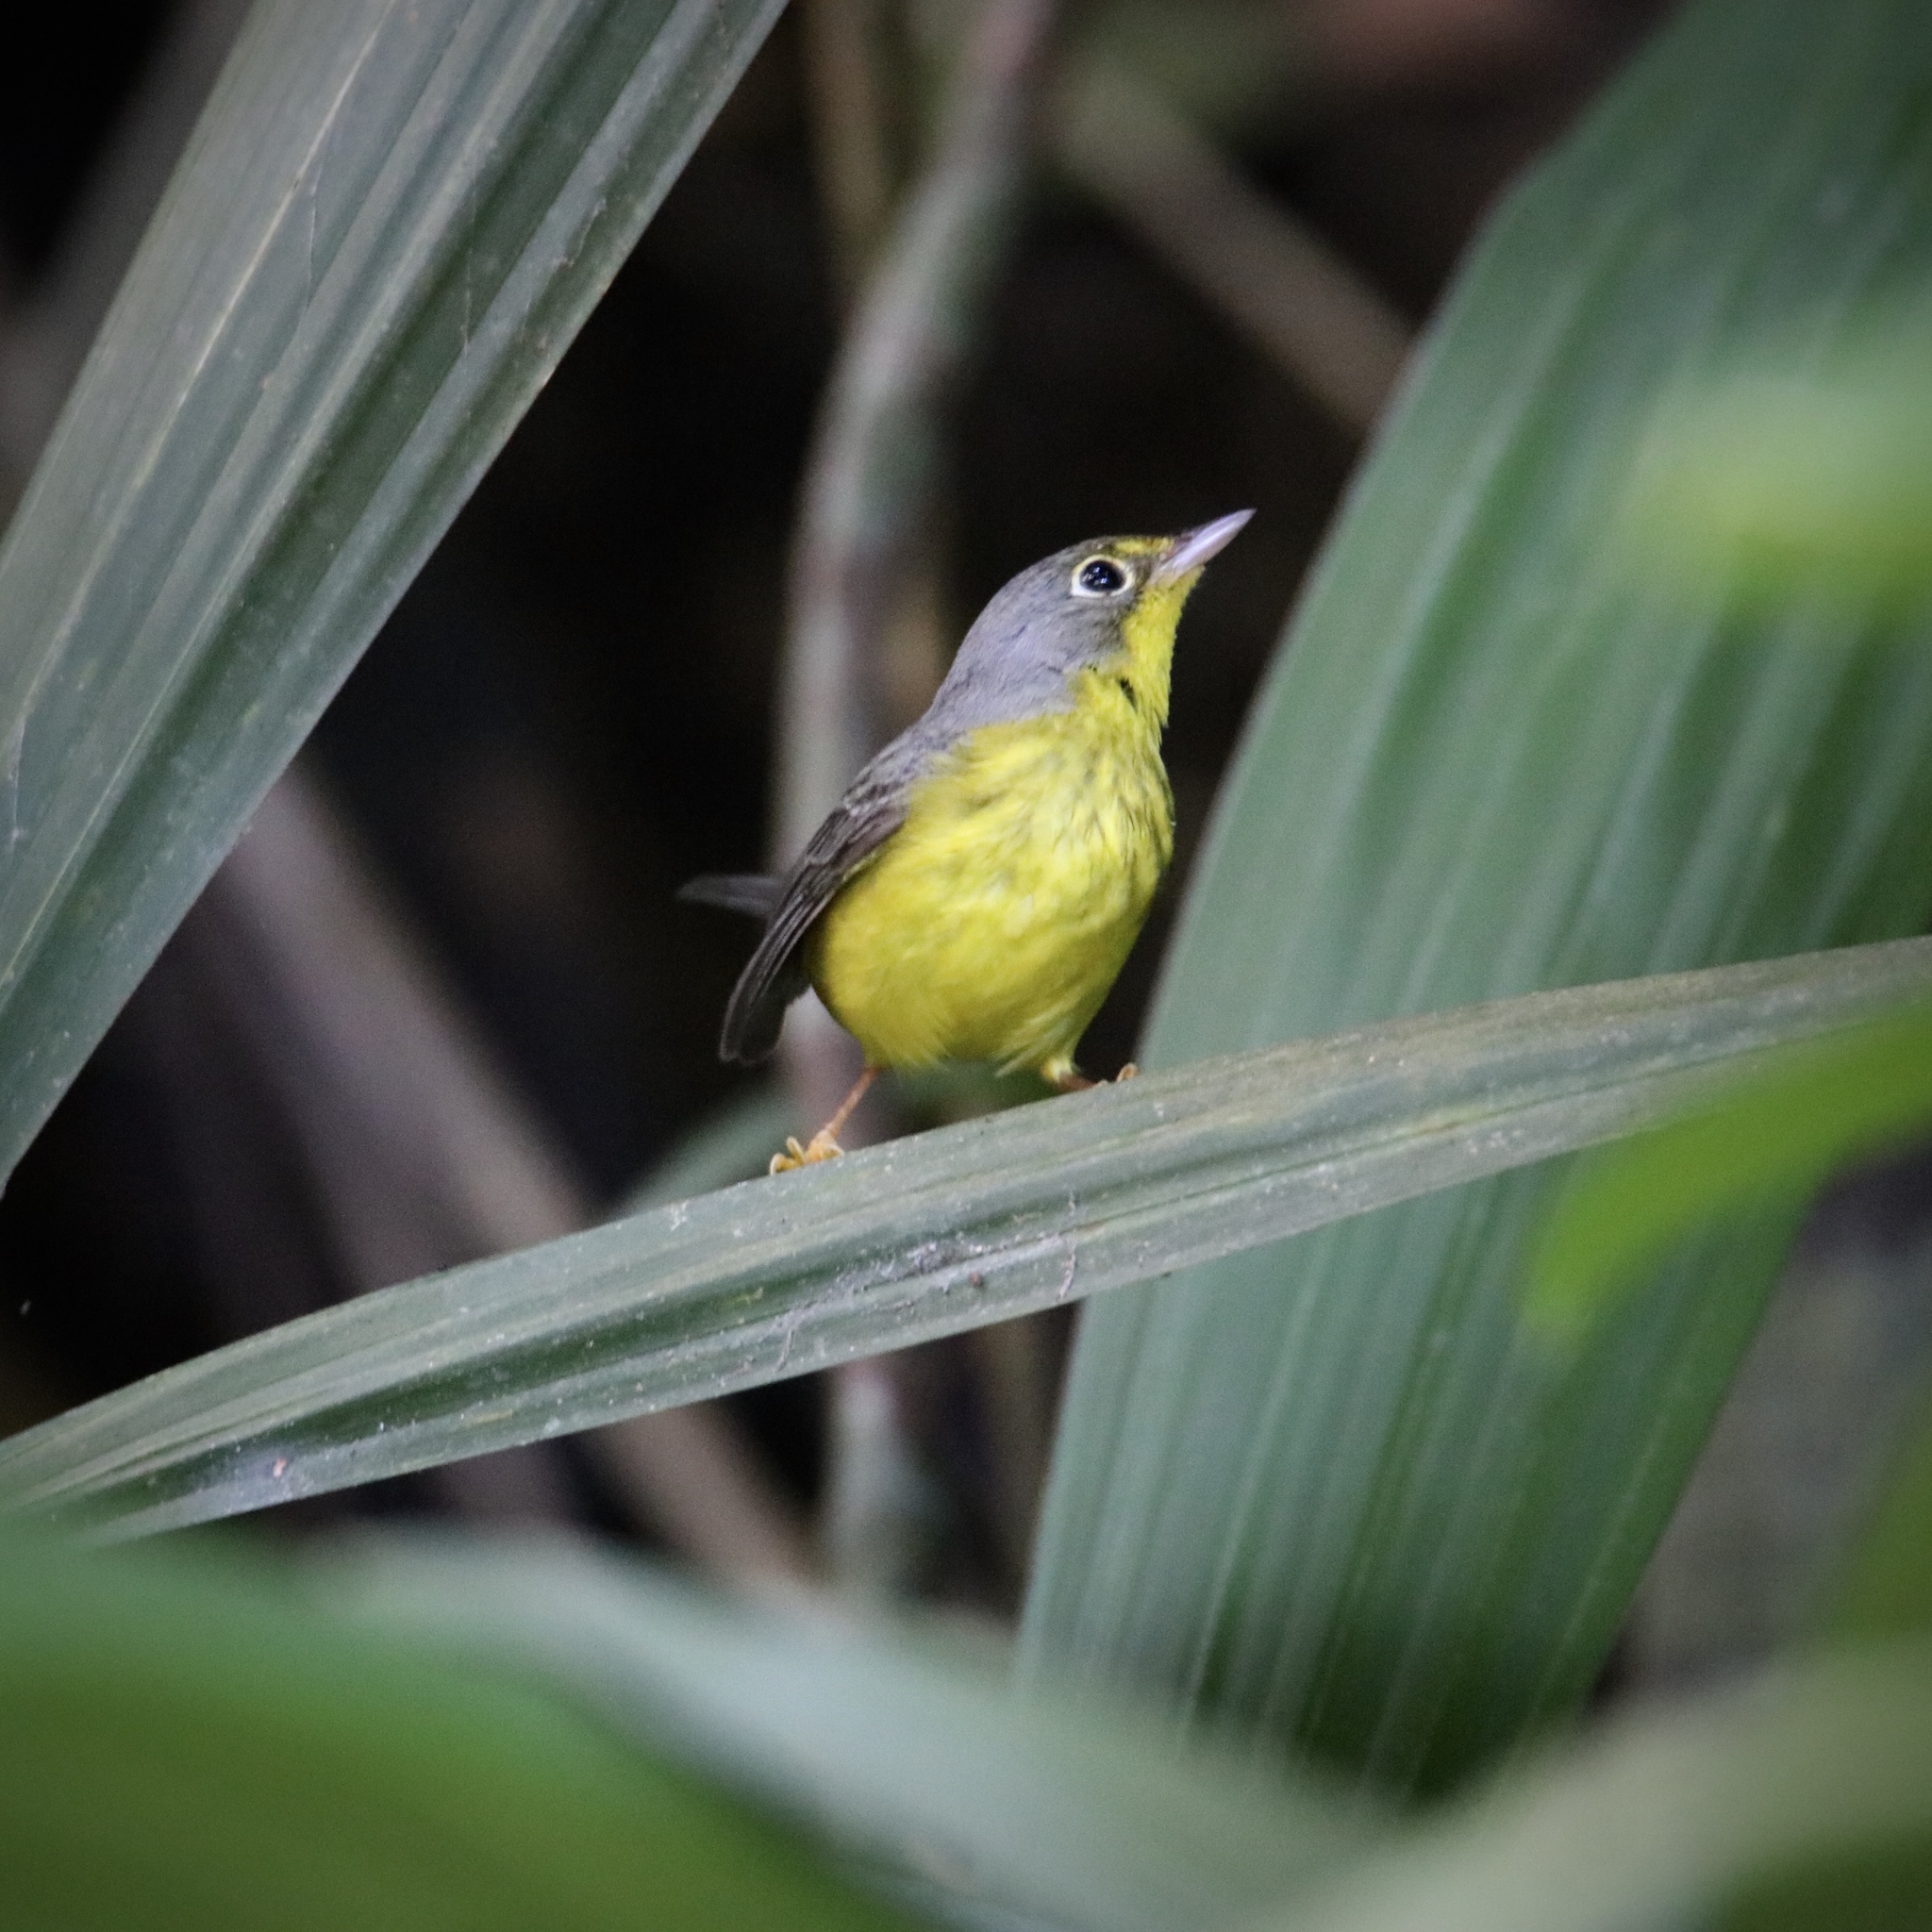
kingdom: Animalia
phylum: Chordata
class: Aves
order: Passeriformes
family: Parulidae
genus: Cardellina
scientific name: Cardellina canadensis
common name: Canada warbler
